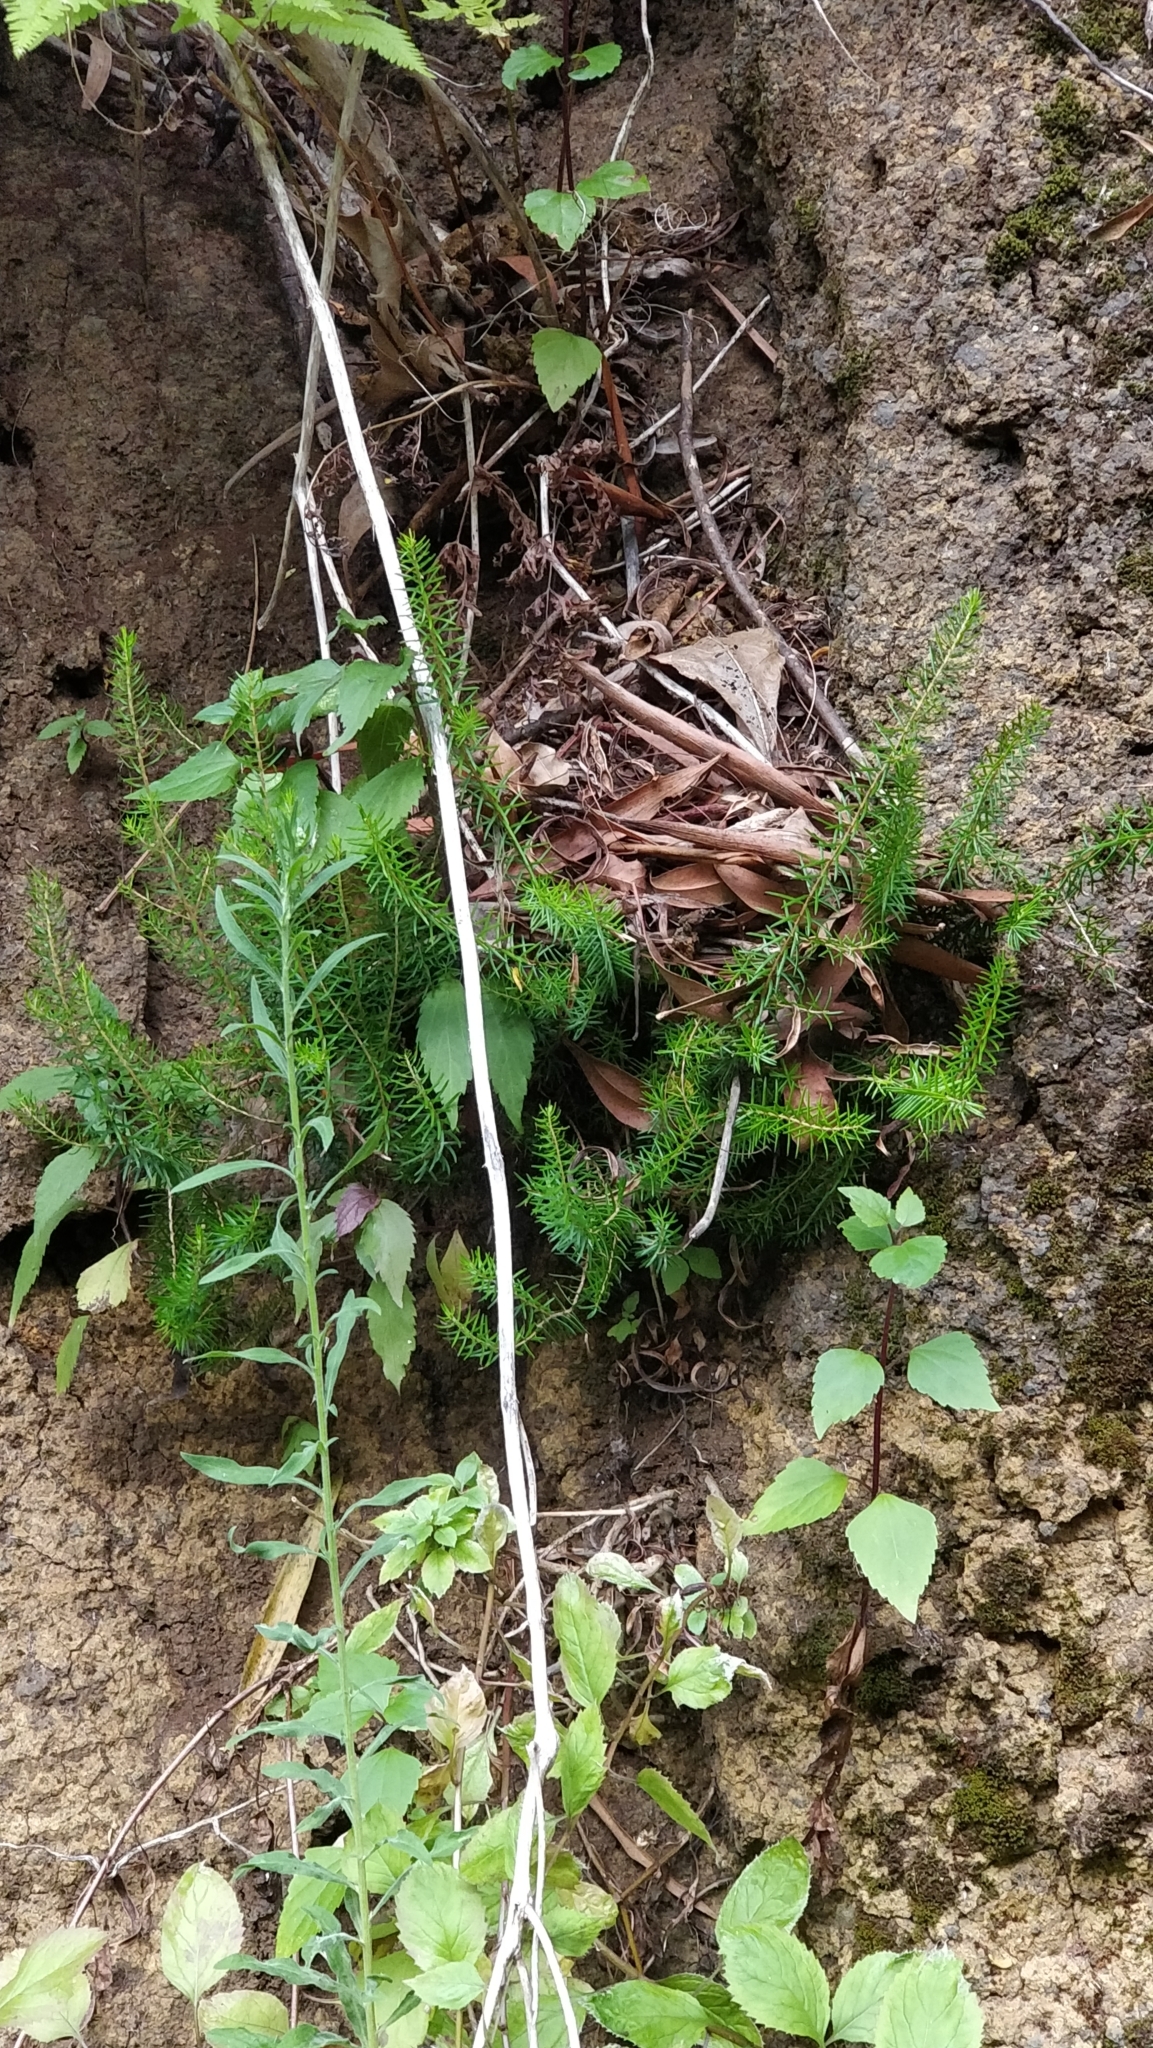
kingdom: Plantae
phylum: Tracheophyta
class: Magnoliopsida
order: Ericales
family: Ericaceae
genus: Erica
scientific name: Erica platycodon
